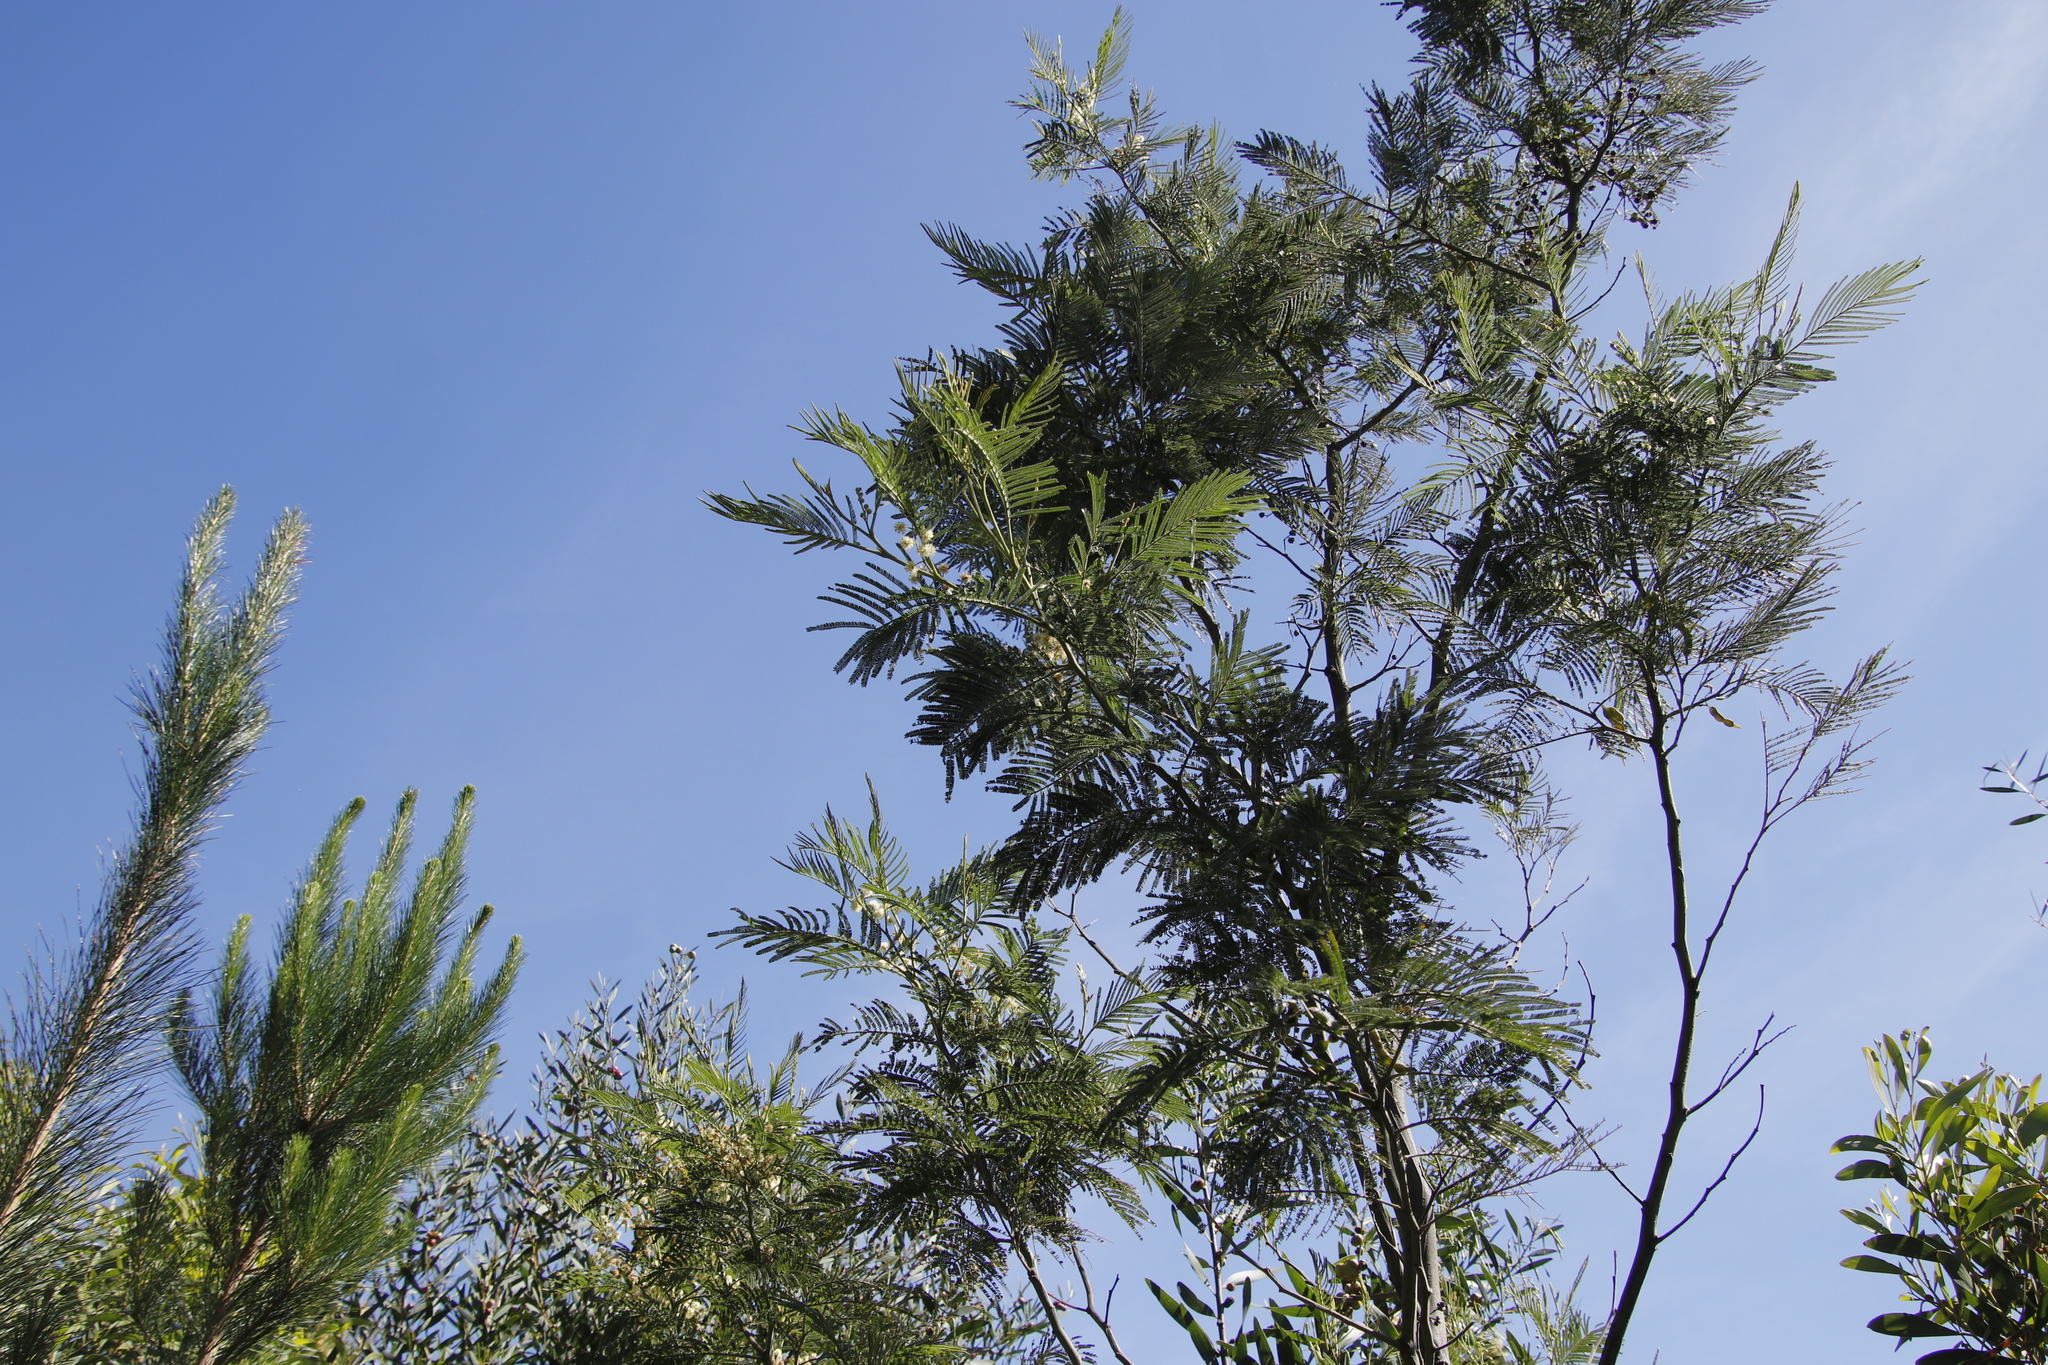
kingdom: Plantae
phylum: Tracheophyta
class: Magnoliopsida
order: Fabales
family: Fabaceae
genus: Acacia
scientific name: Acacia mearnsii
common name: Black wattle
